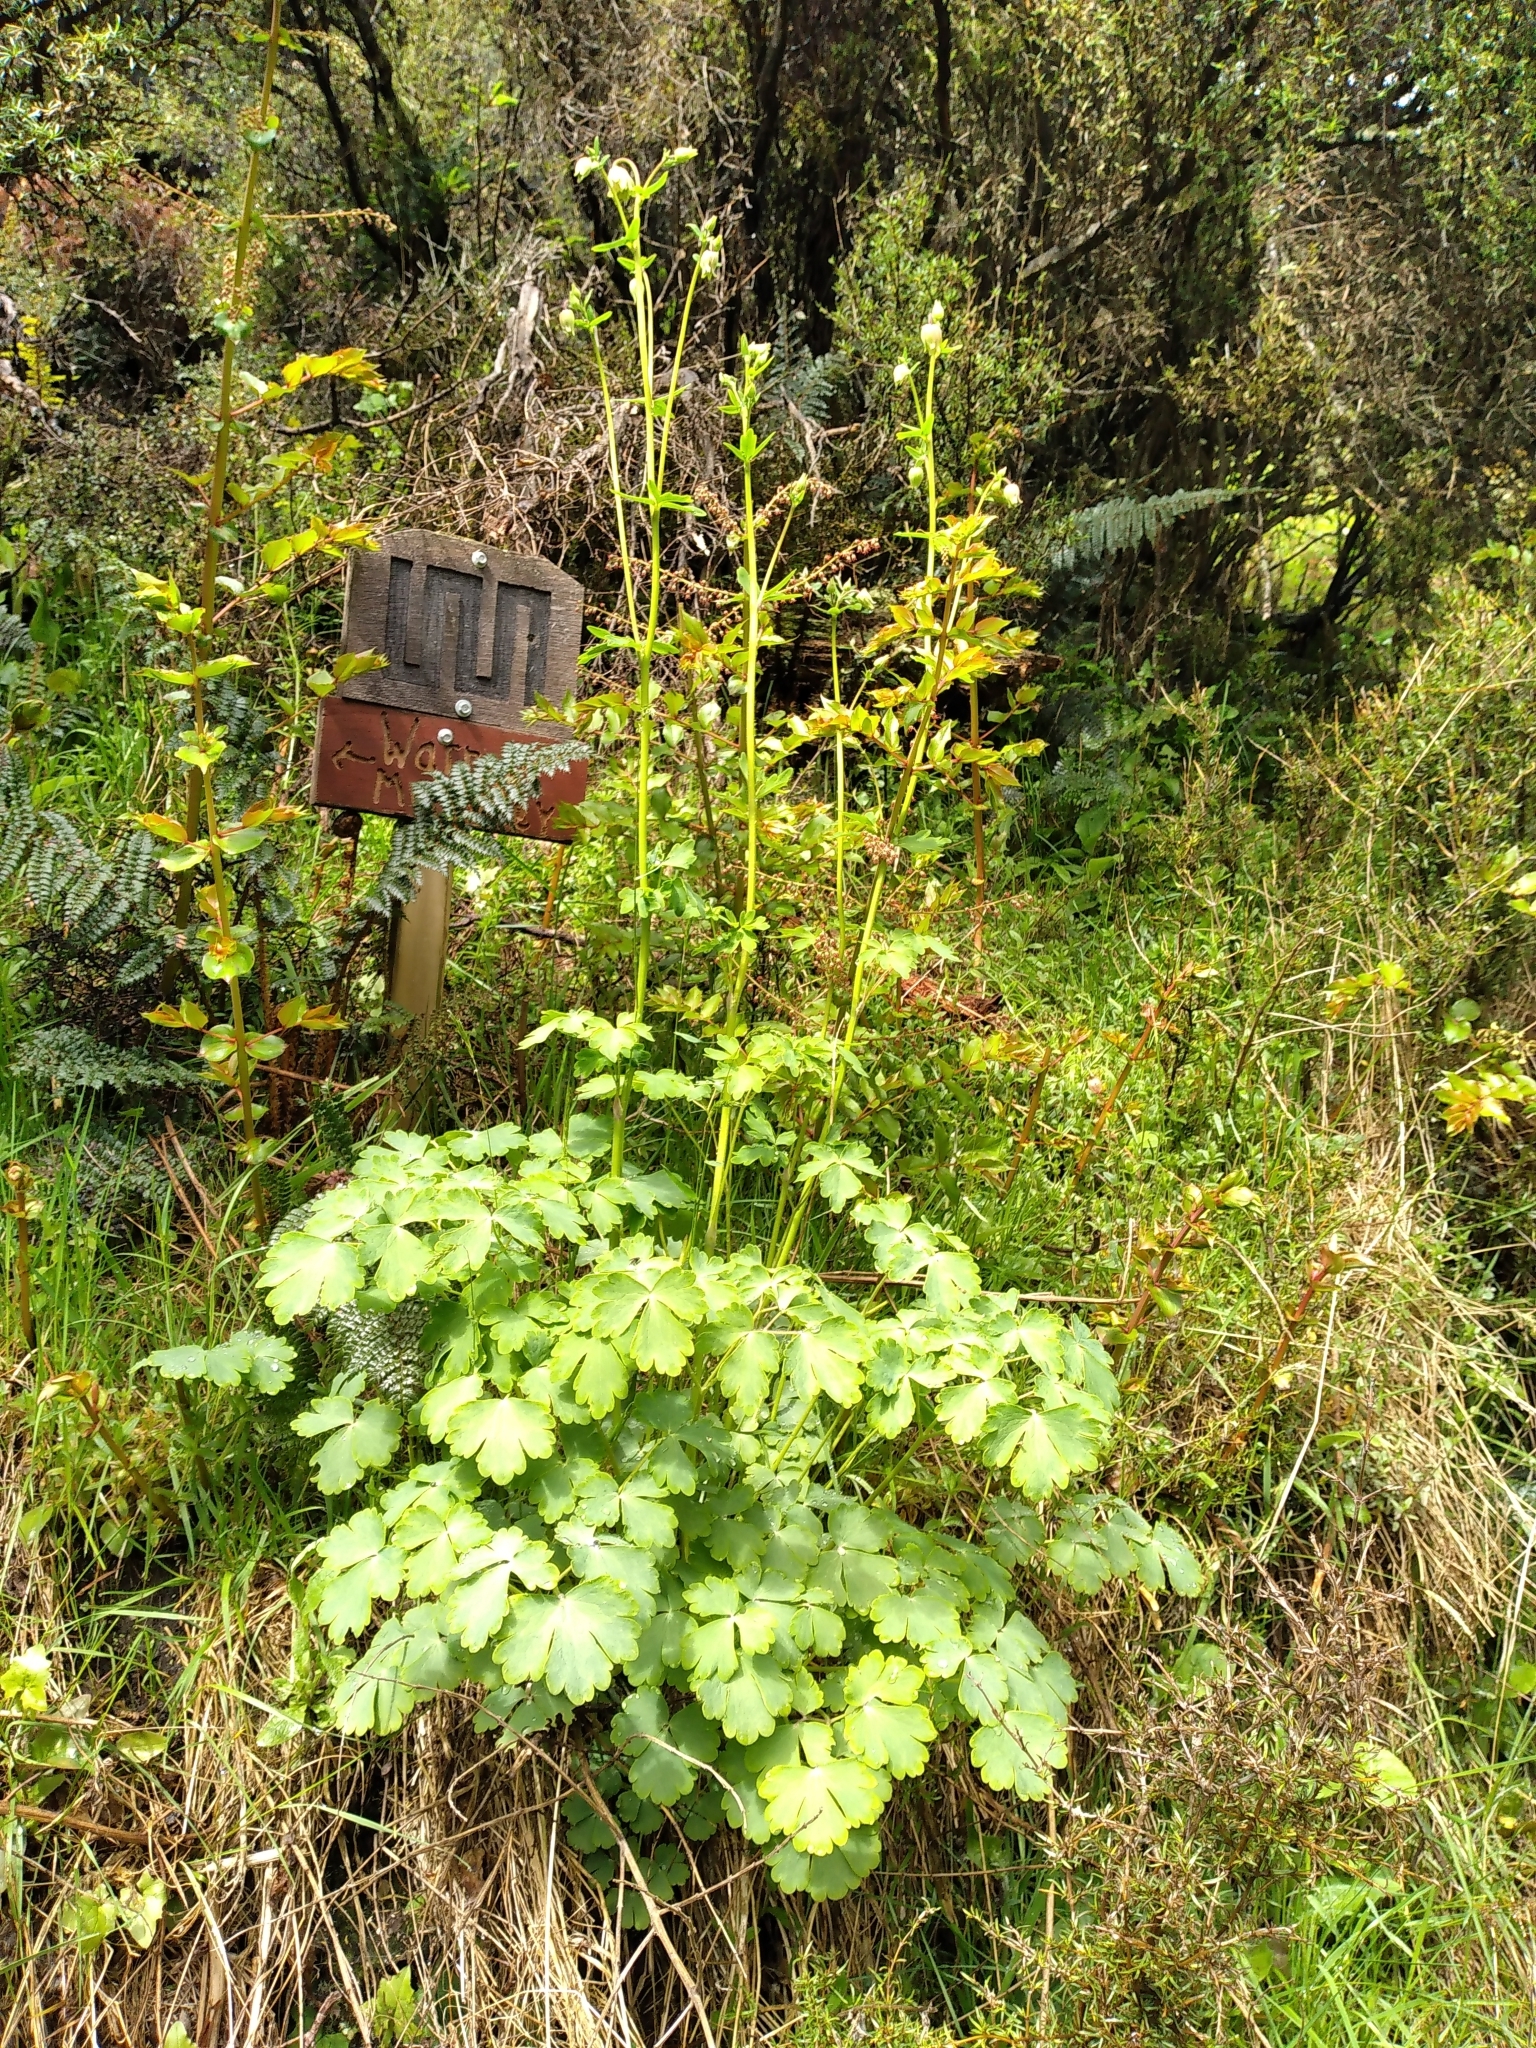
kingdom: Plantae
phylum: Tracheophyta
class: Magnoliopsida
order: Ranunculales
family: Ranunculaceae
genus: Aquilegia
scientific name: Aquilegia vulgaris
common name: Columbine
